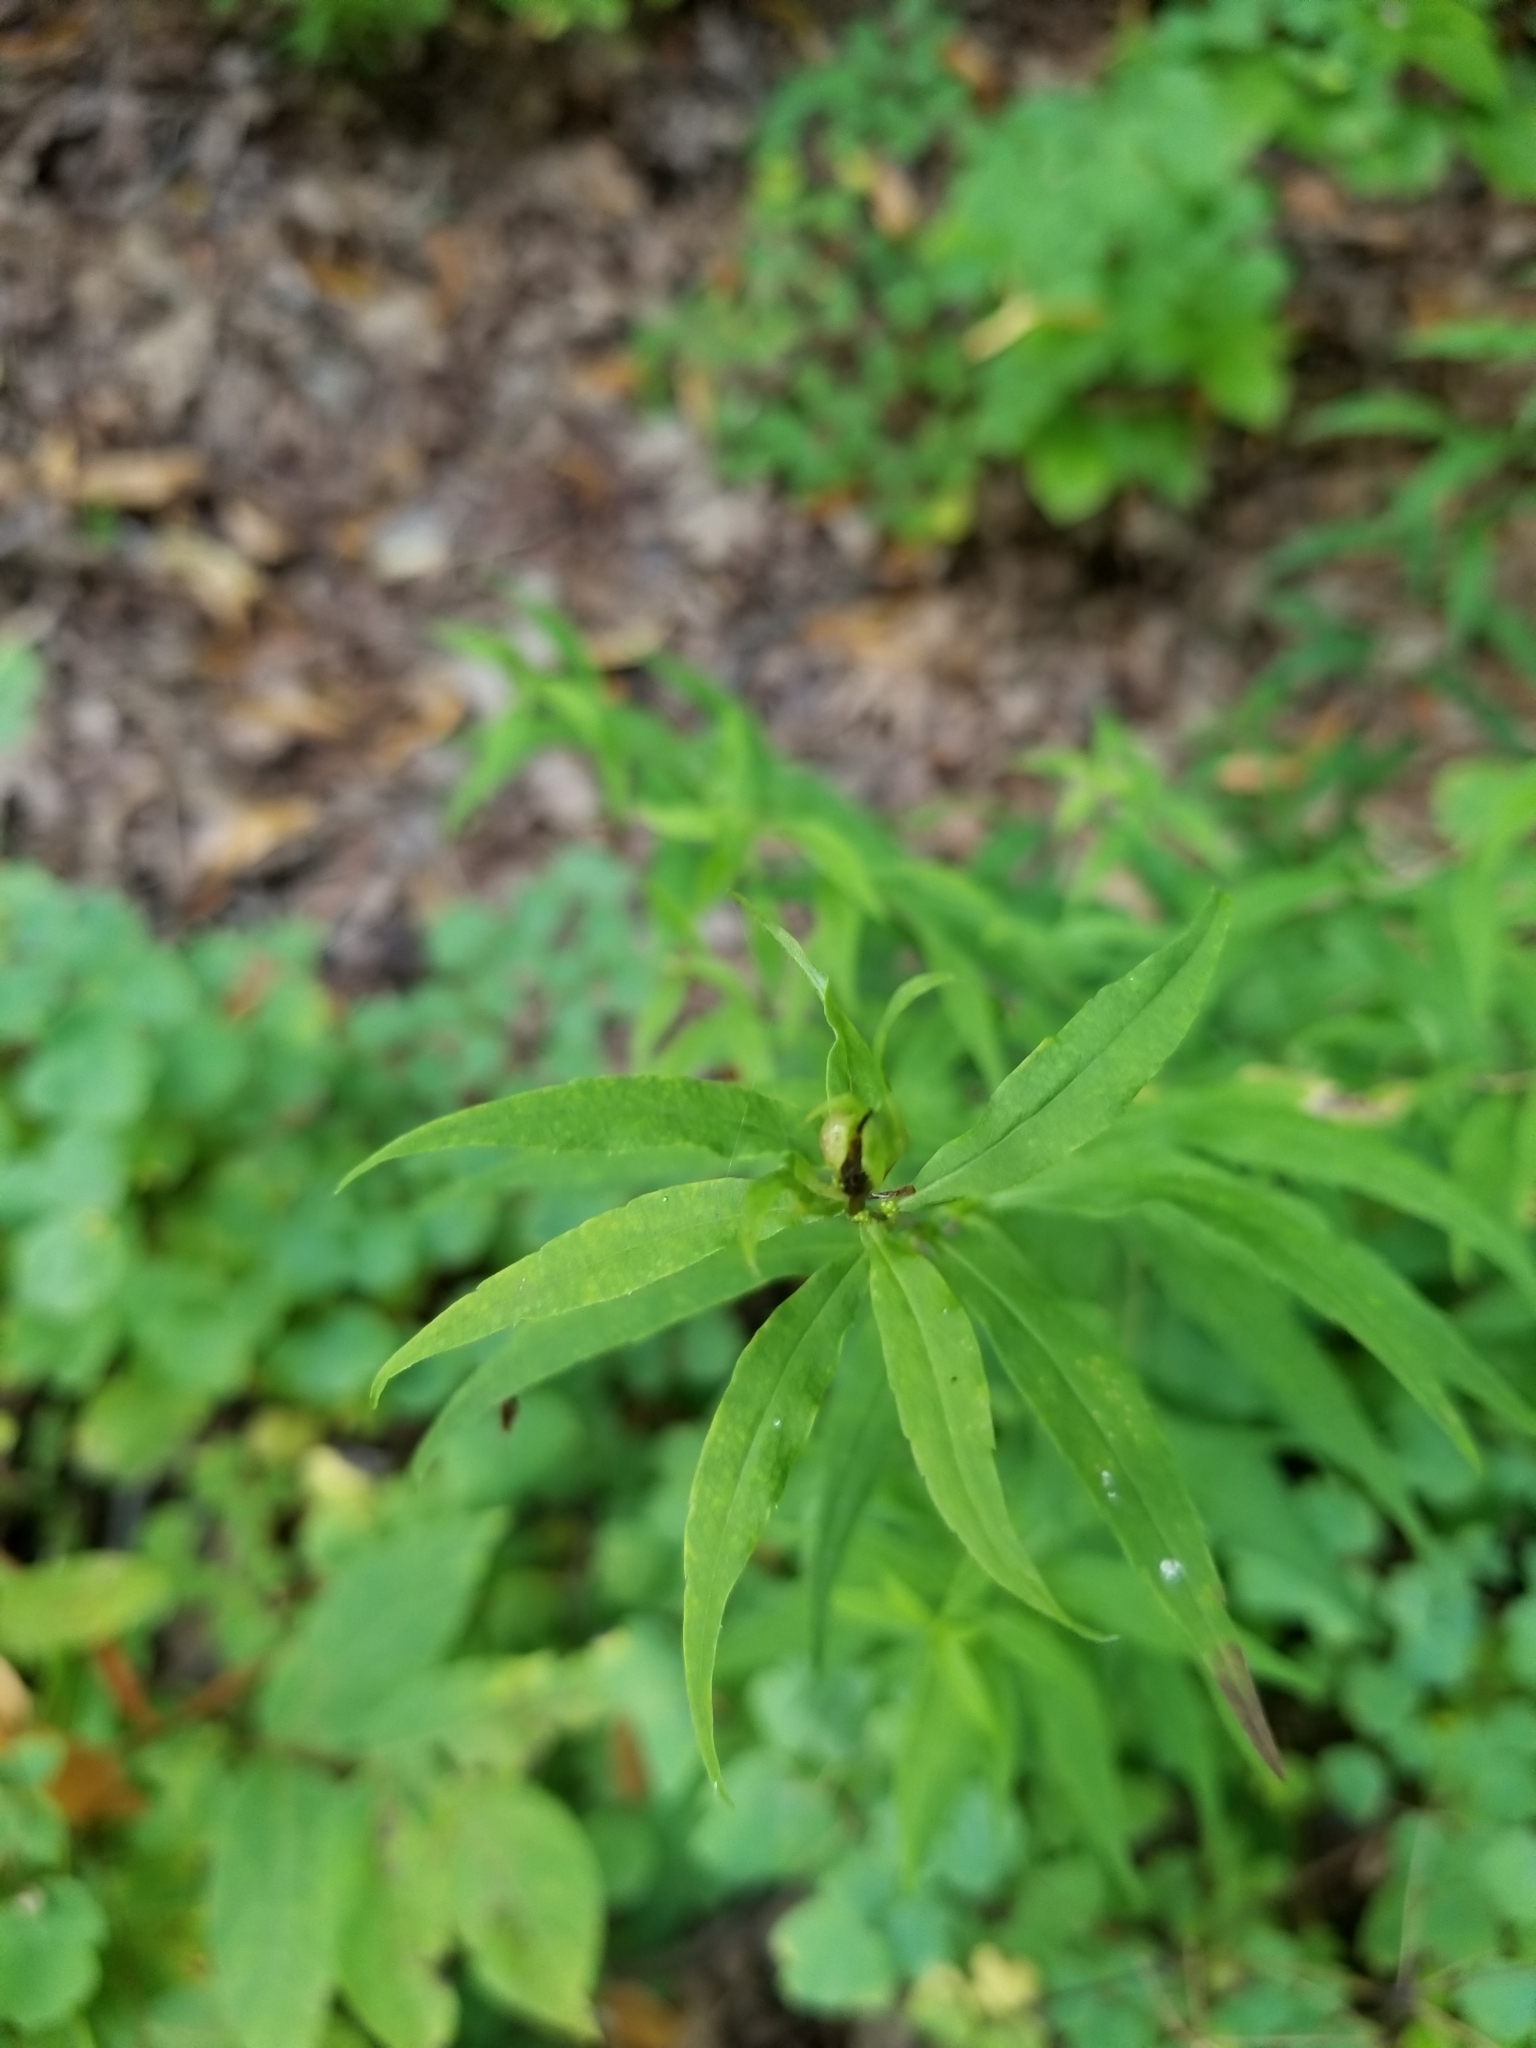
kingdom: Plantae
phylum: Tracheophyta
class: Magnoliopsida
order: Asterales
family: Asteraceae
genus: Solidago
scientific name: Solidago caesia
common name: Woodland goldenrod
